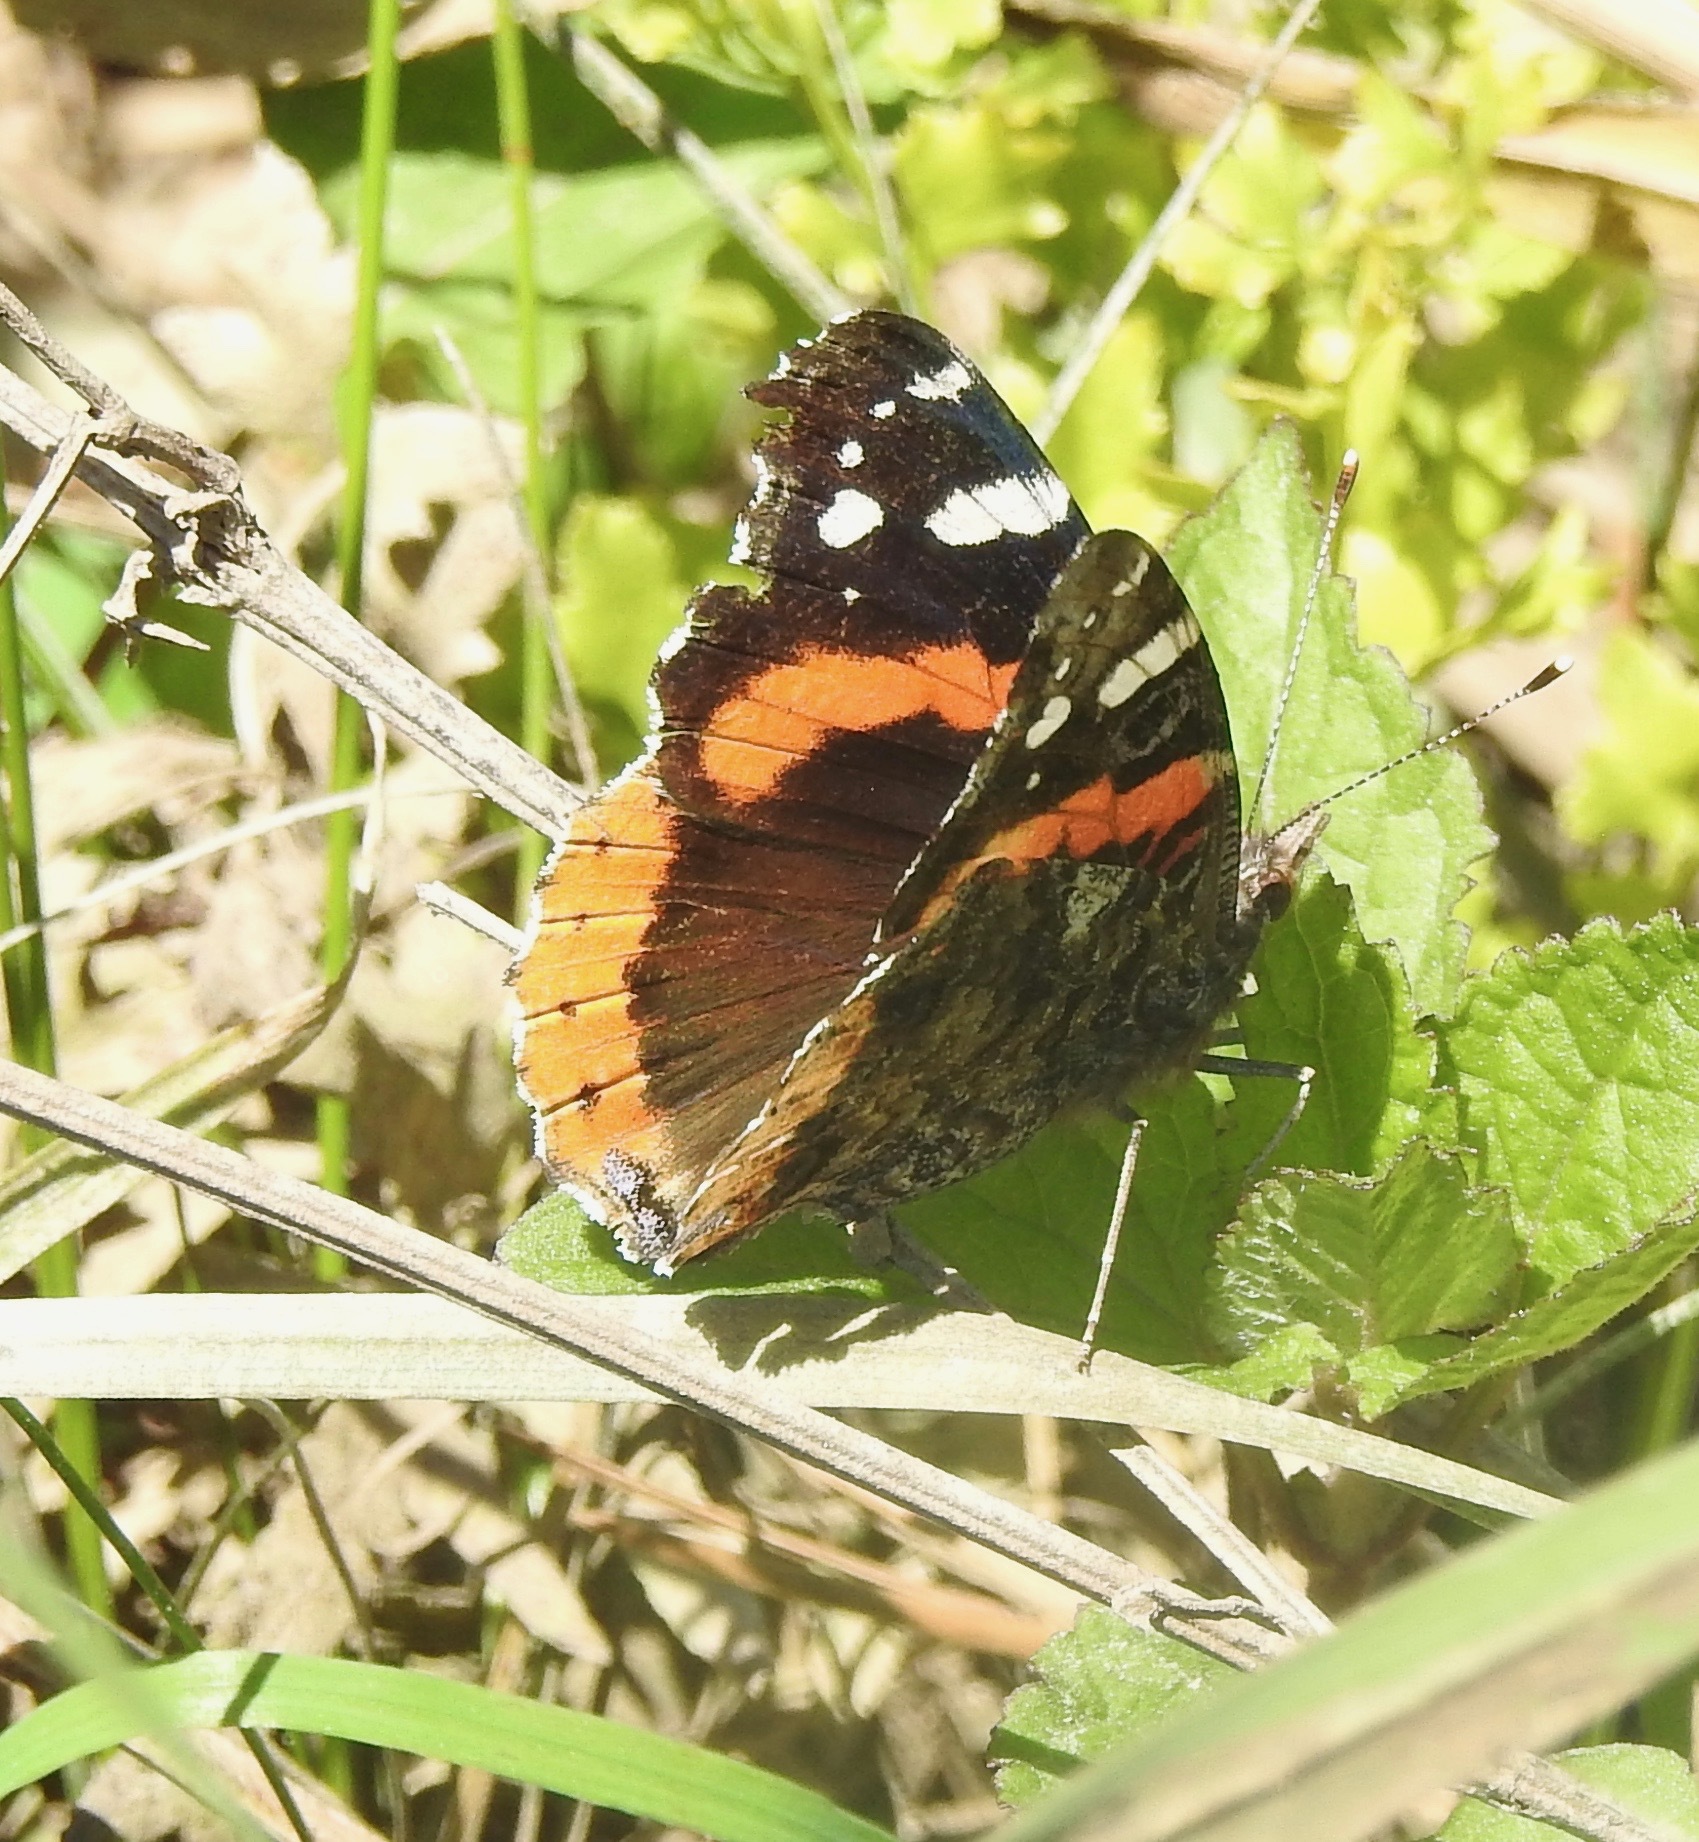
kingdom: Animalia
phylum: Arthropoda
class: Insecta
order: Lepidoptera
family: Nymphalidae
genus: Vanessa
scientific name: Vanessa atalanta
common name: Red admiral
